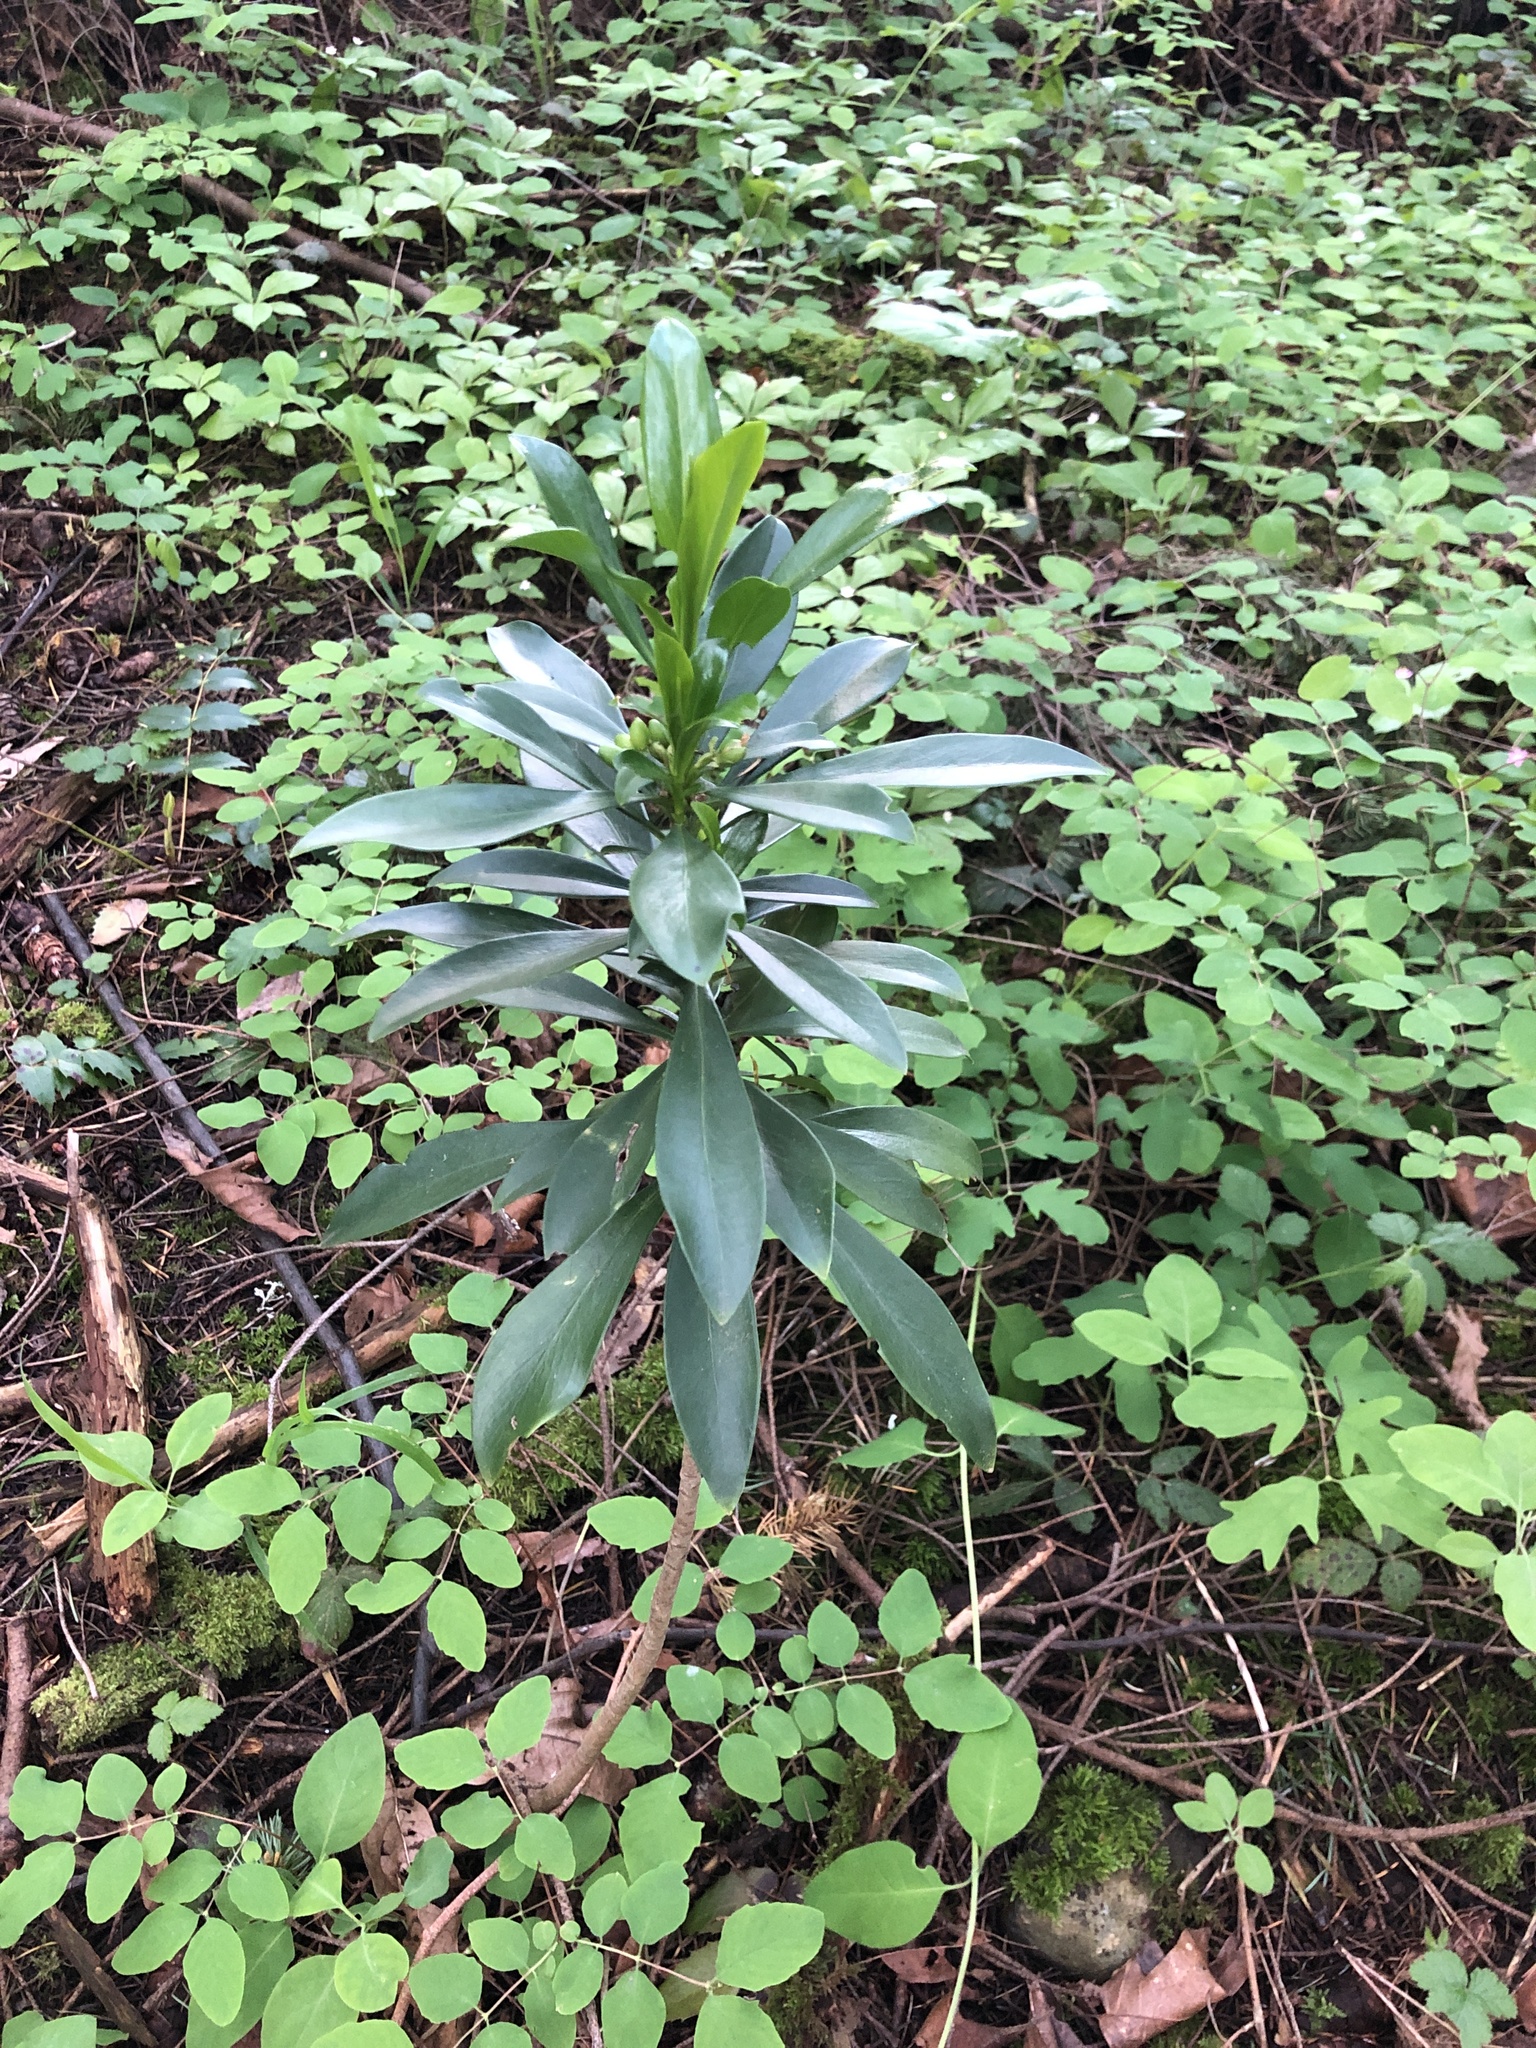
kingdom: Plantae
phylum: Tracheophyta
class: Magnoliopsida
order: Malvales
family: Thymelaeaceae
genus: Daphne
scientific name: Daphne laureola
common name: Spurge-laurel
